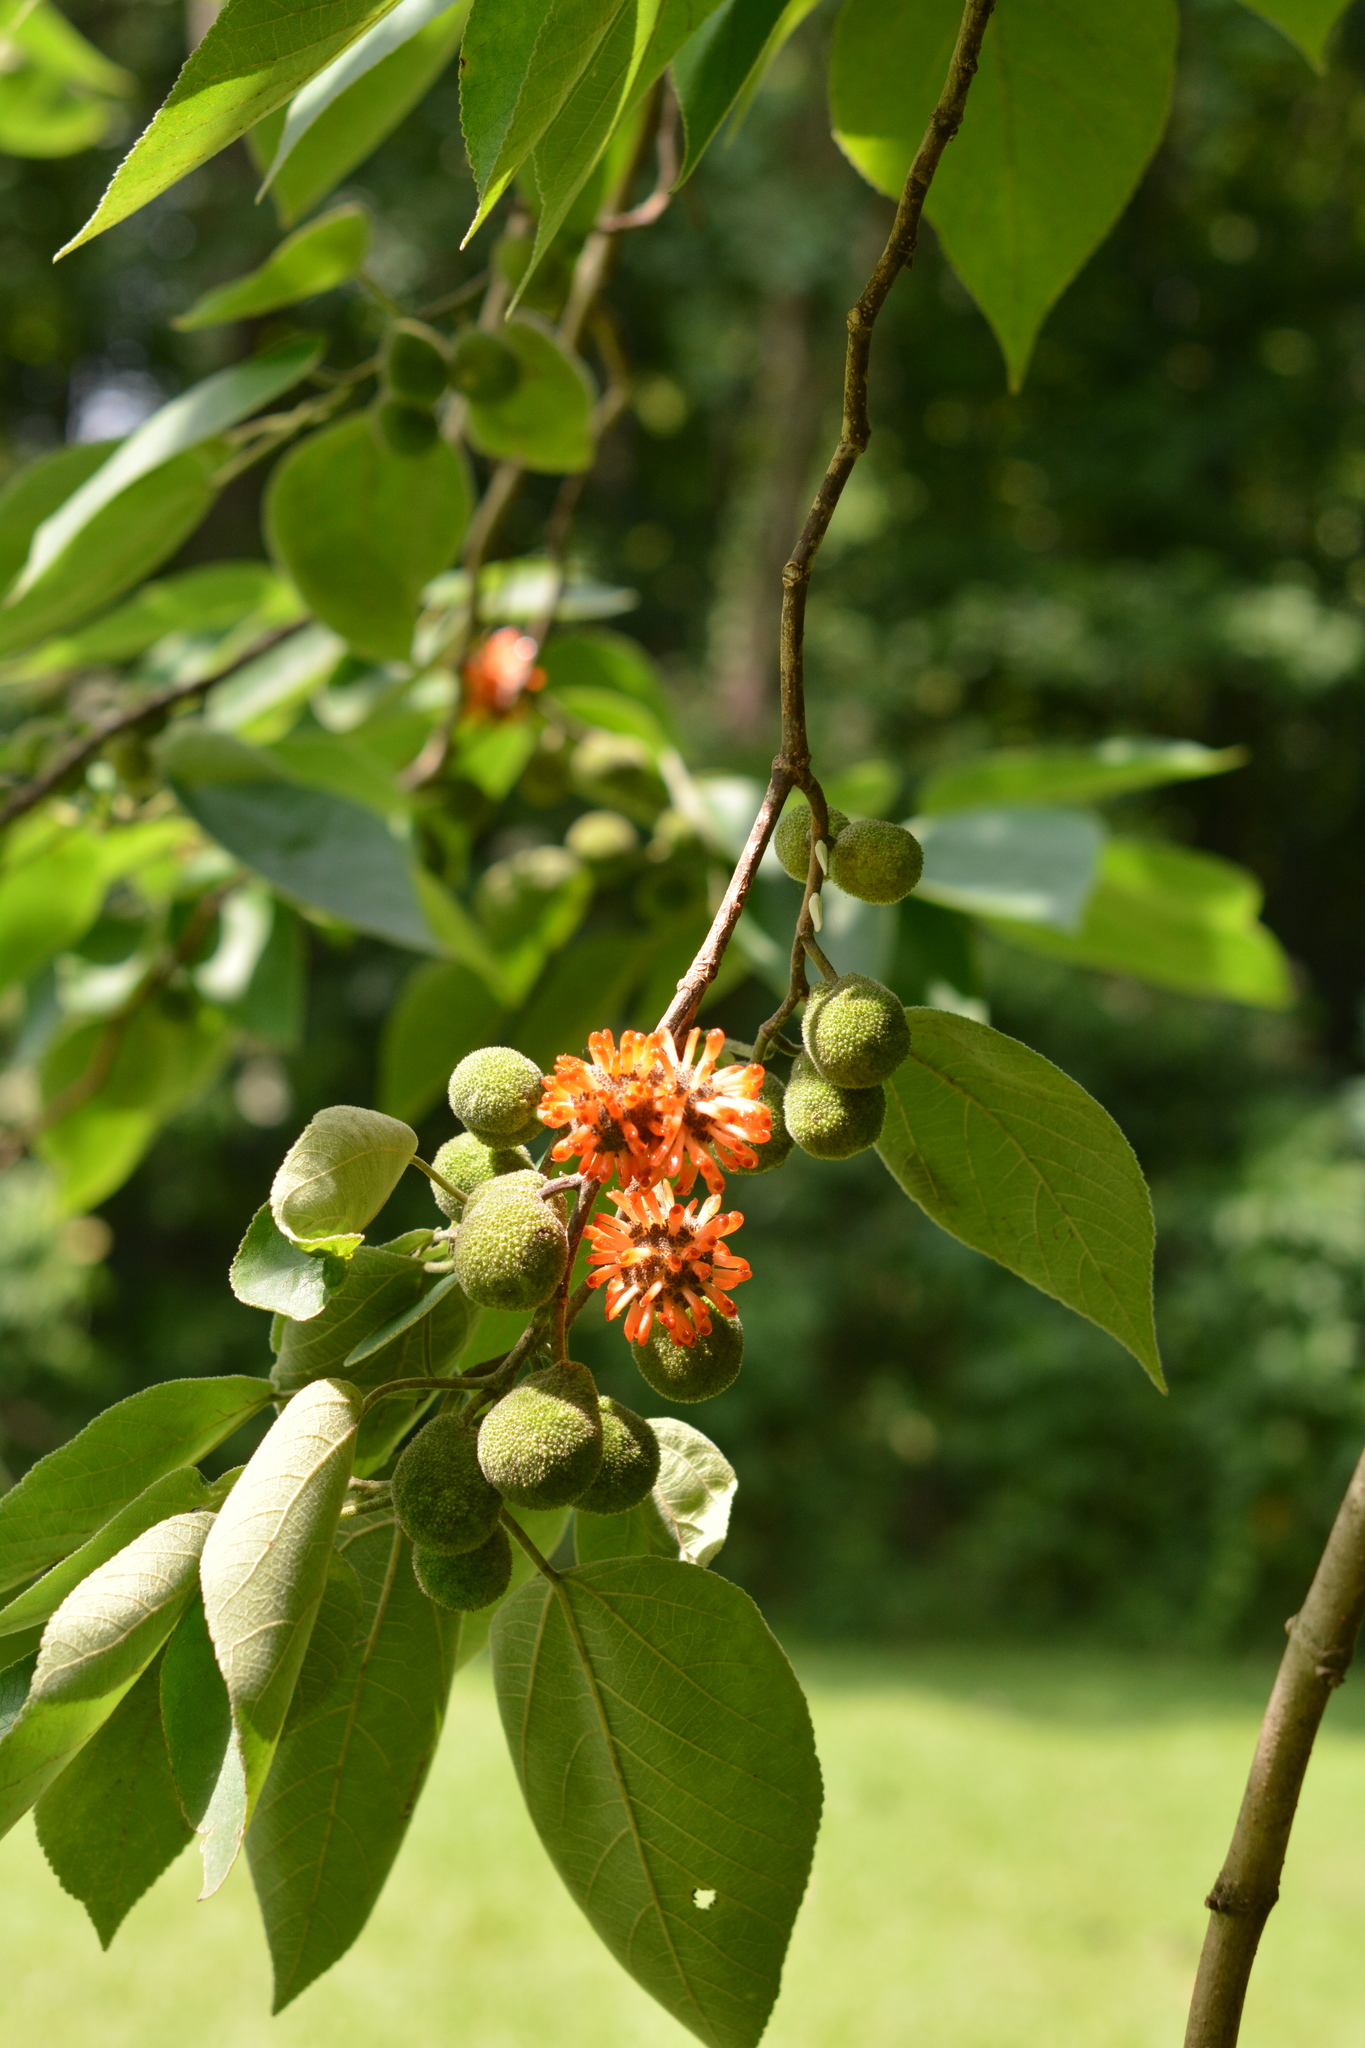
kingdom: Plantae
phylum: Tracheophyta
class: Magnoliopsida
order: Rosales
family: Moraceae
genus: Broussonetia
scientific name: Broussonetia papyrifera
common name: Paper mulberry
